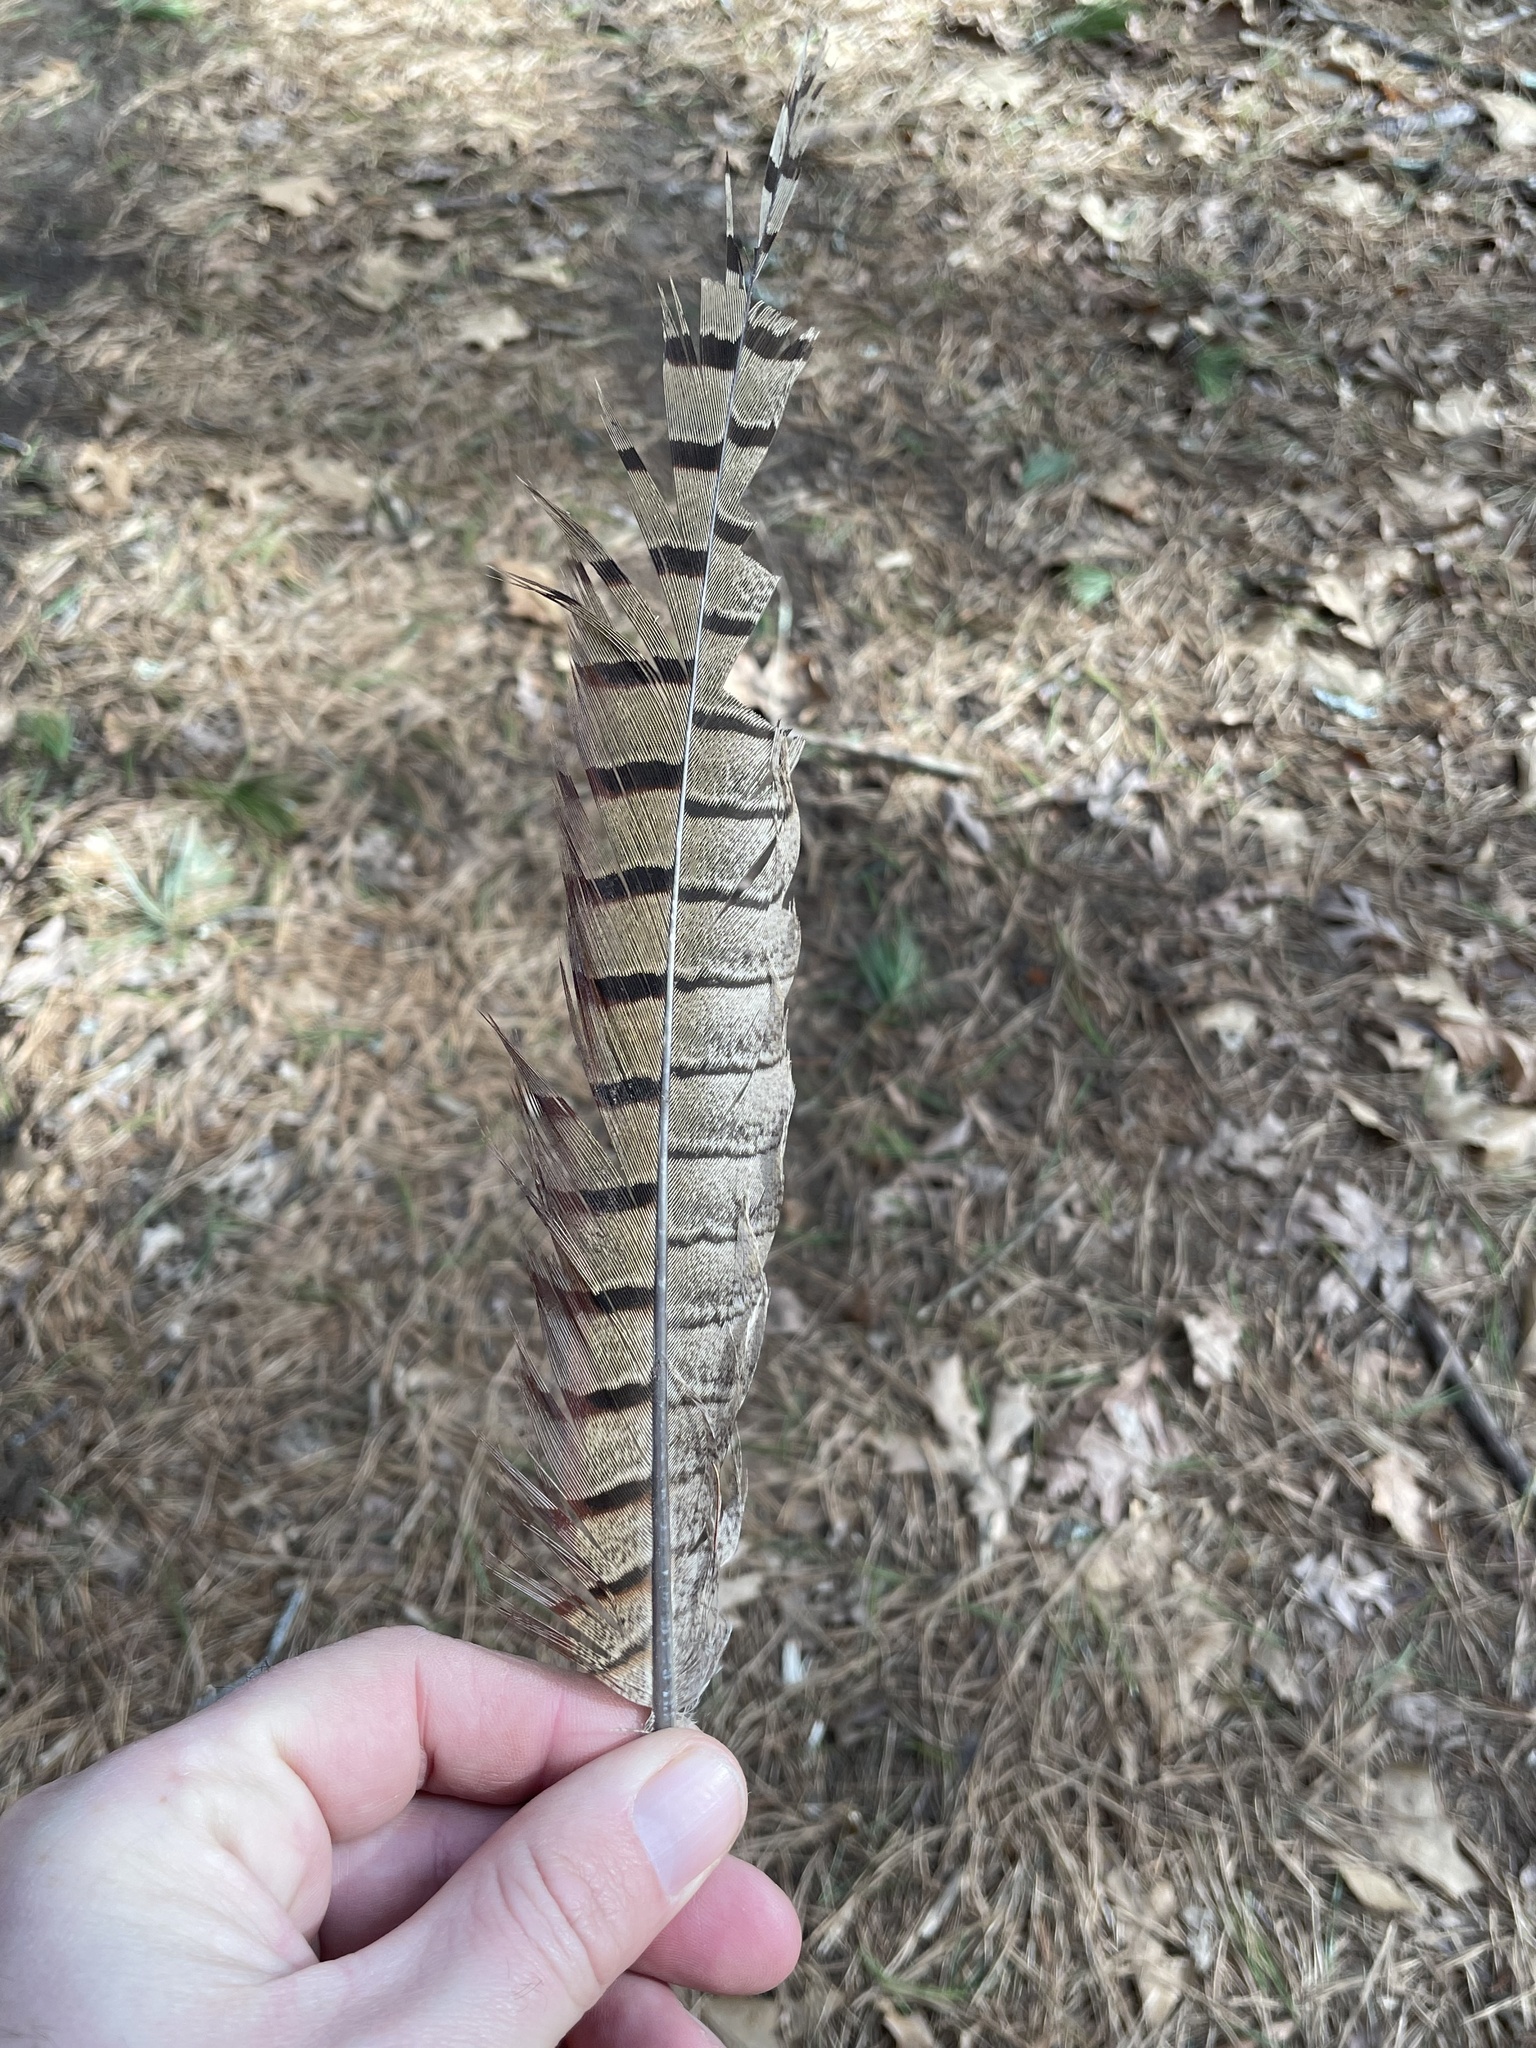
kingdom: Animalia
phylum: Chordata
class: Aves
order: Galliformes
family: Phasianidae
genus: Phasianus
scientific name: Phasianus colchicus
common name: Common pheasant
